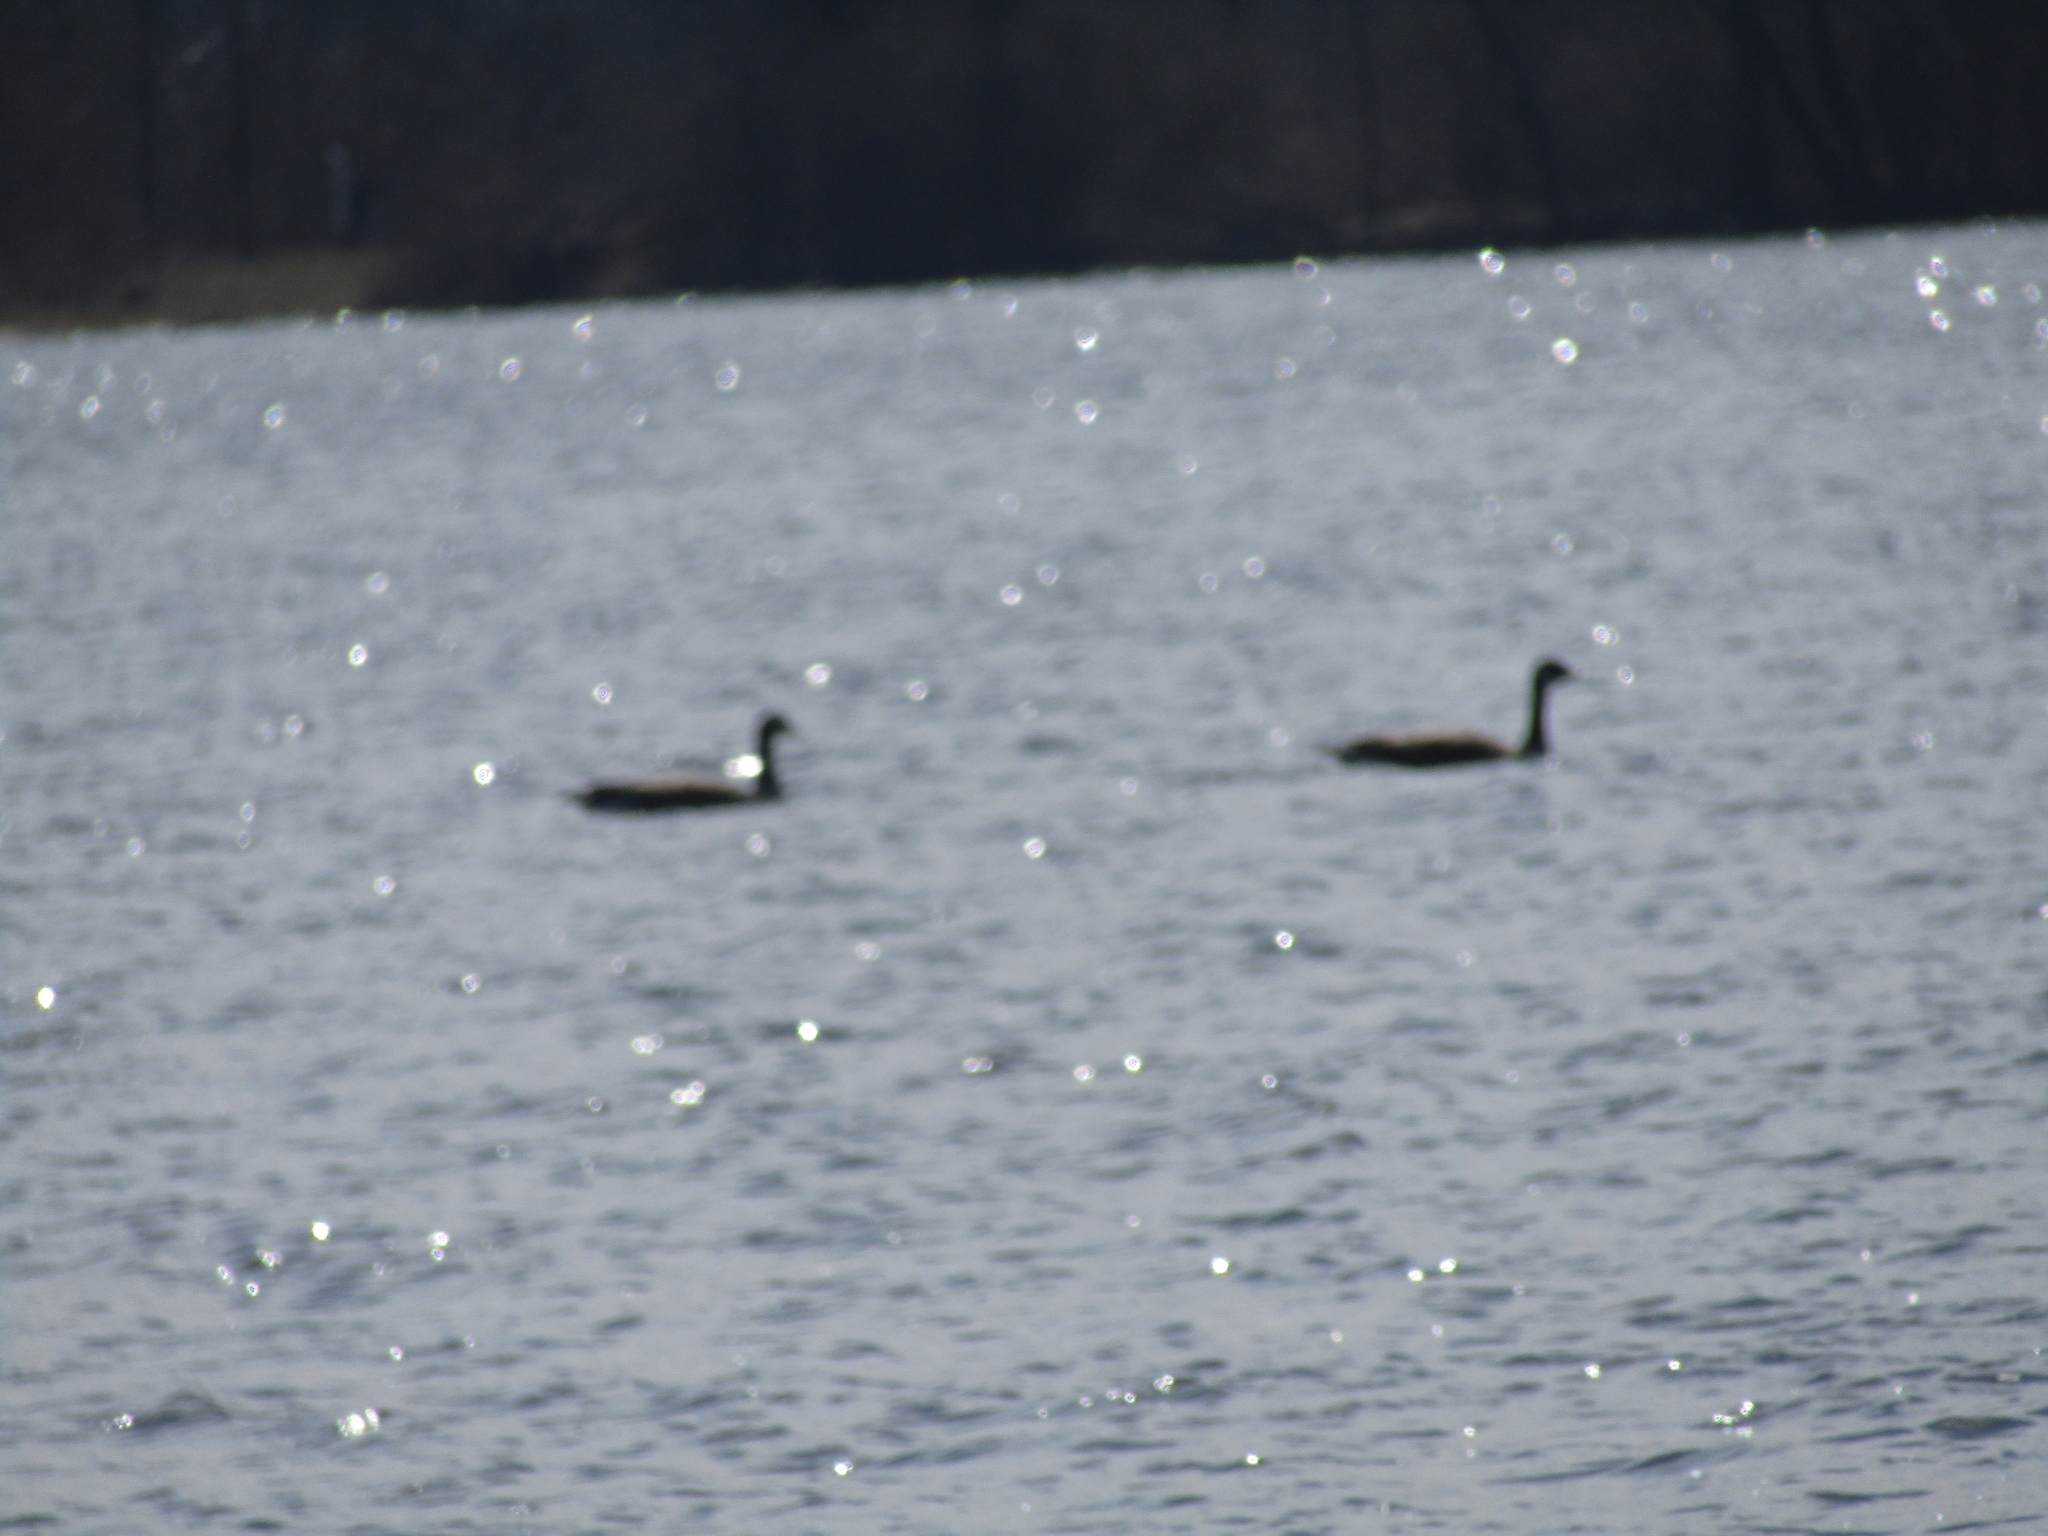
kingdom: Animalia
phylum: Chordata
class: Aves
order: Anseriformes
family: Anatidae
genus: Branta
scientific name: Branta canadensis
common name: Canada goose
